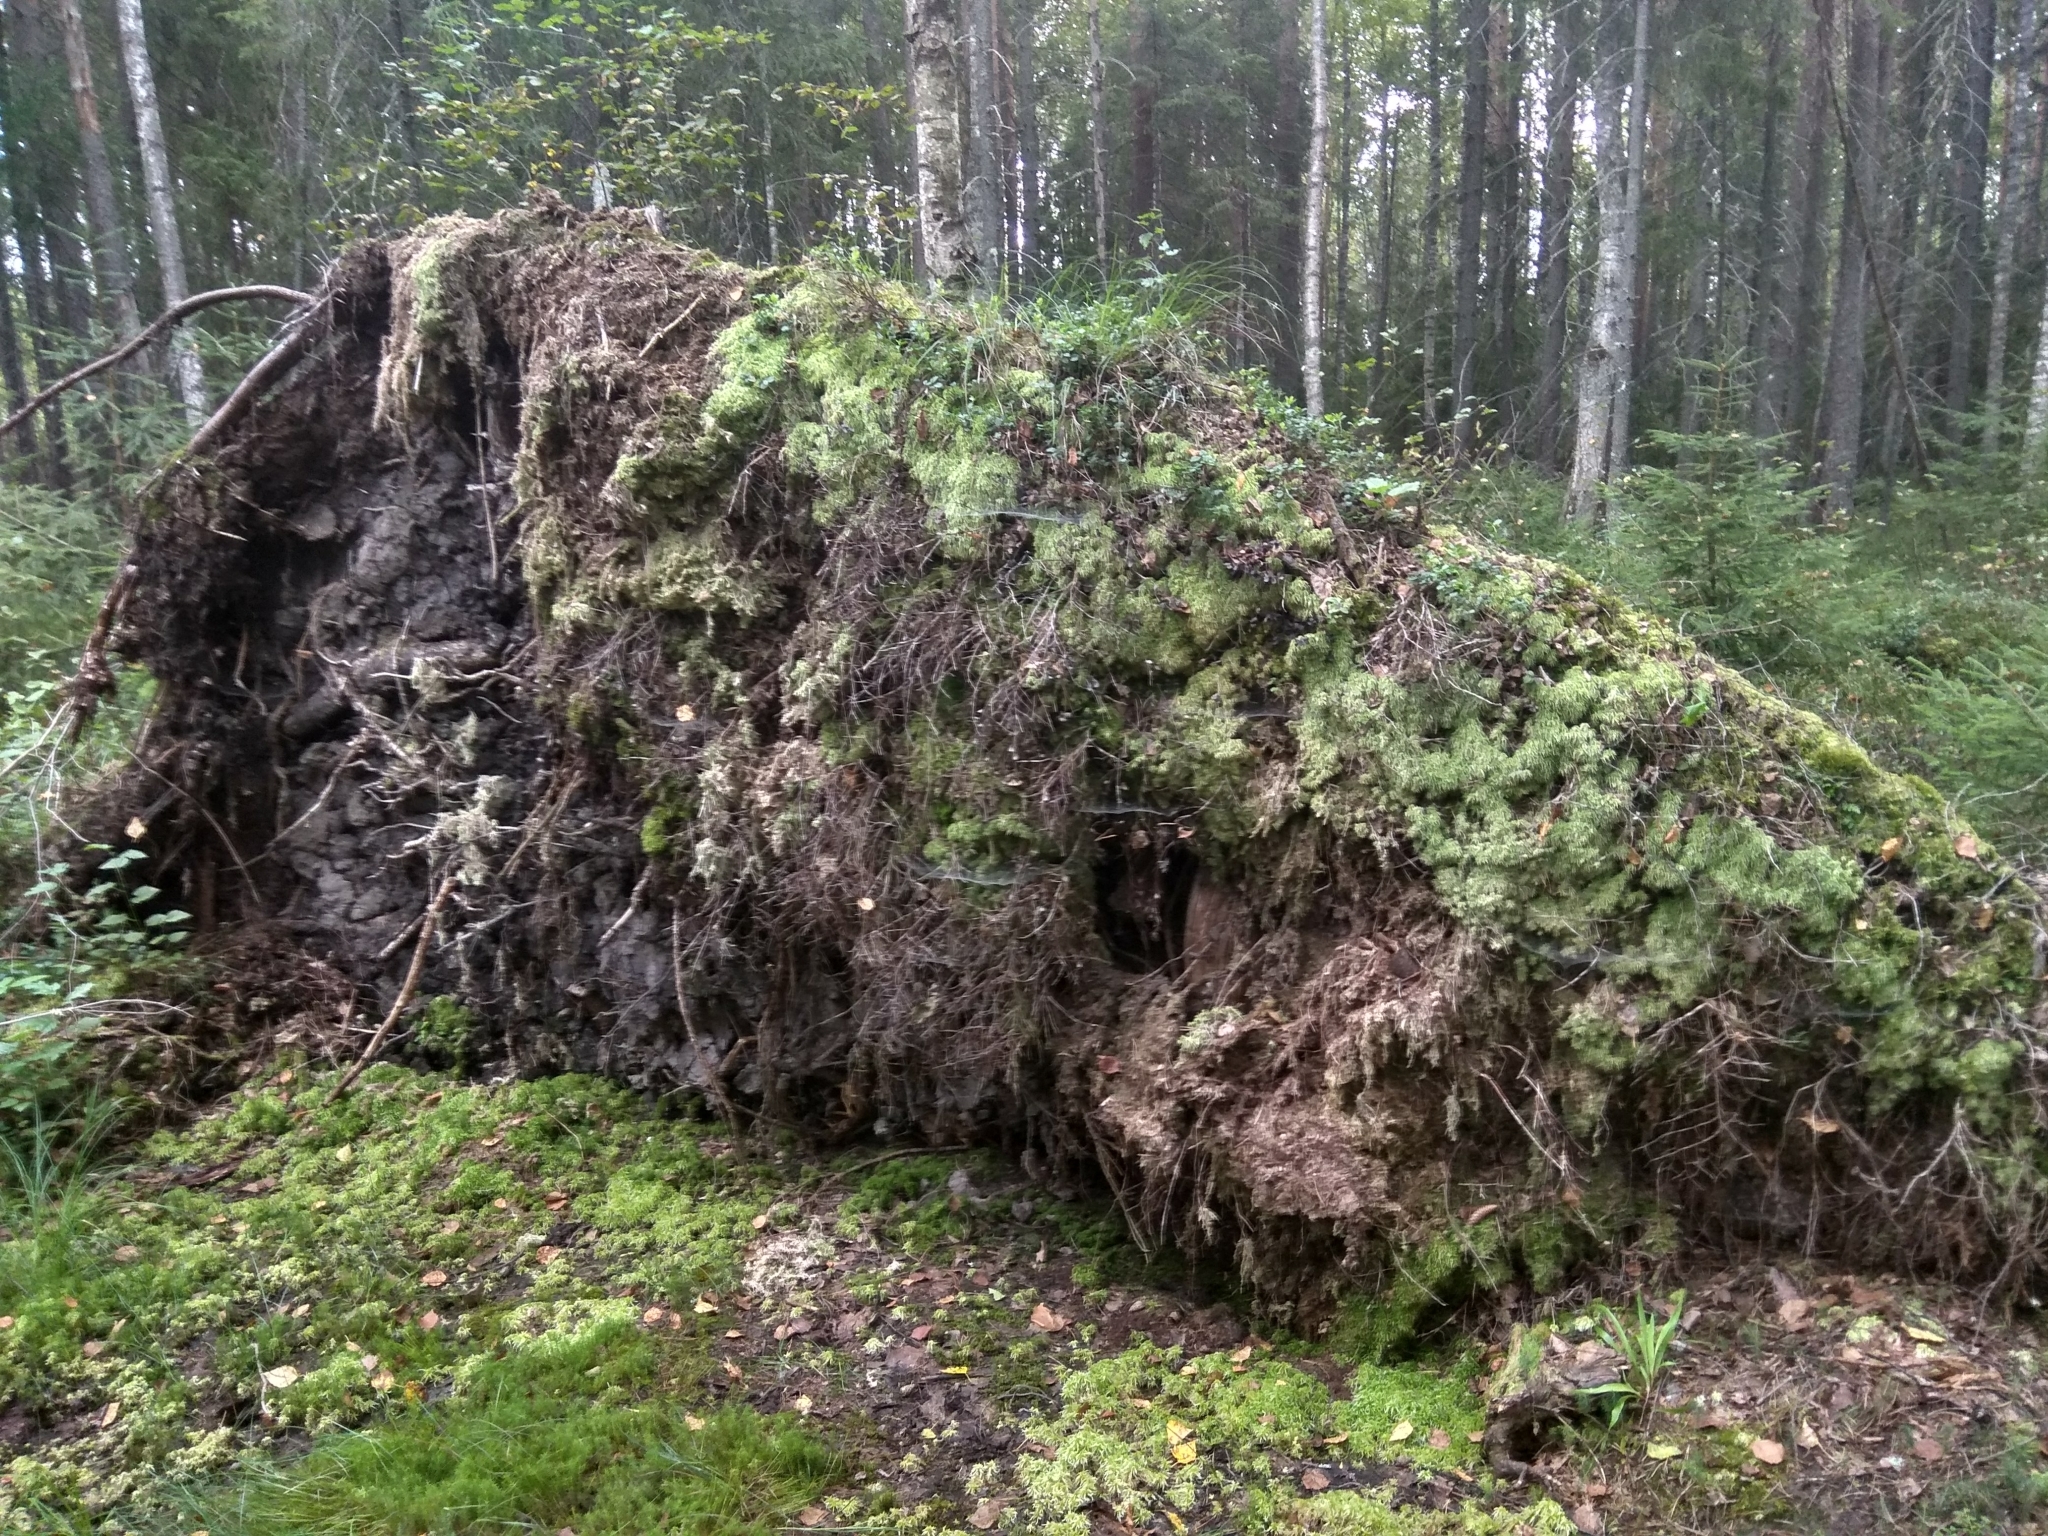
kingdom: Plantae
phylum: Tracheophyta
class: Magnoliopsida
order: Ericales
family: Ericaceae
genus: Vaccinium
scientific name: Vaccinium vitis-idaea
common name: Cowberry
